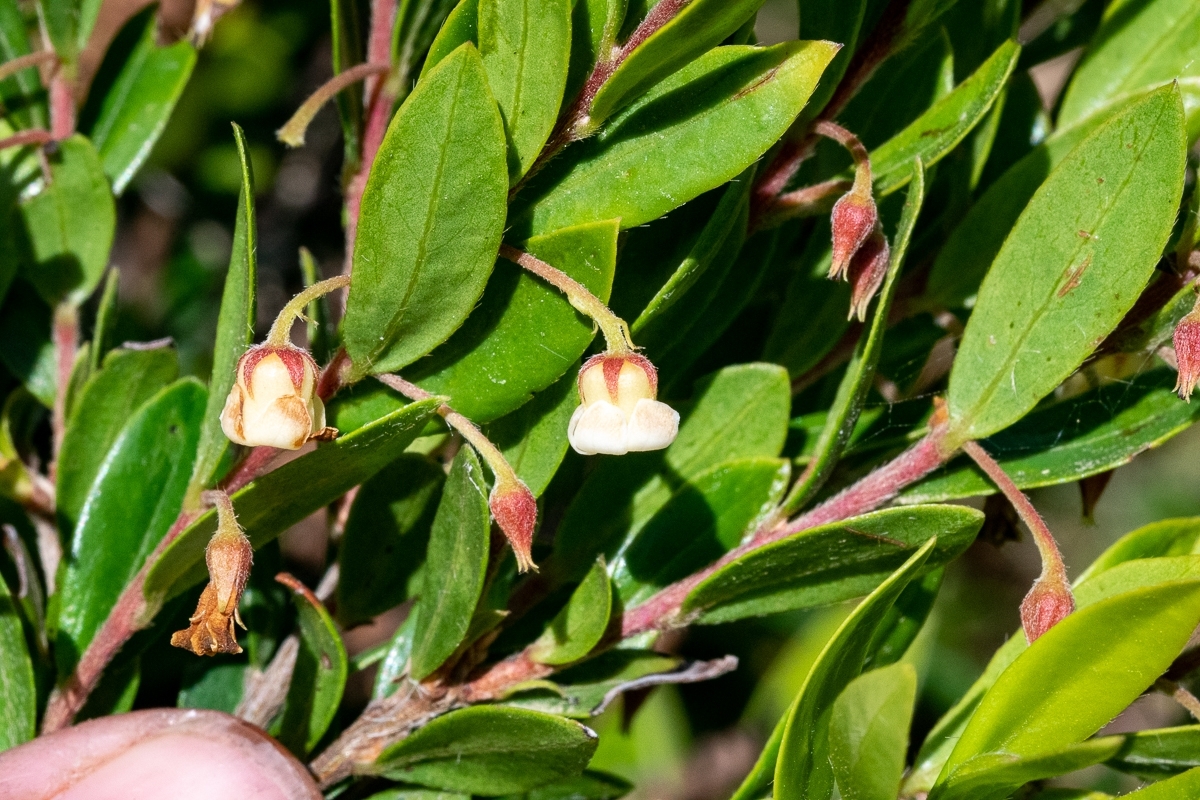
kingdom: Plantae
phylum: Tracheophyta
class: Magnoliopsida
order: Ericales
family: Ebenaceae
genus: Diospyros
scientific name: Diospyros glabra
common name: Fynbos star apple
